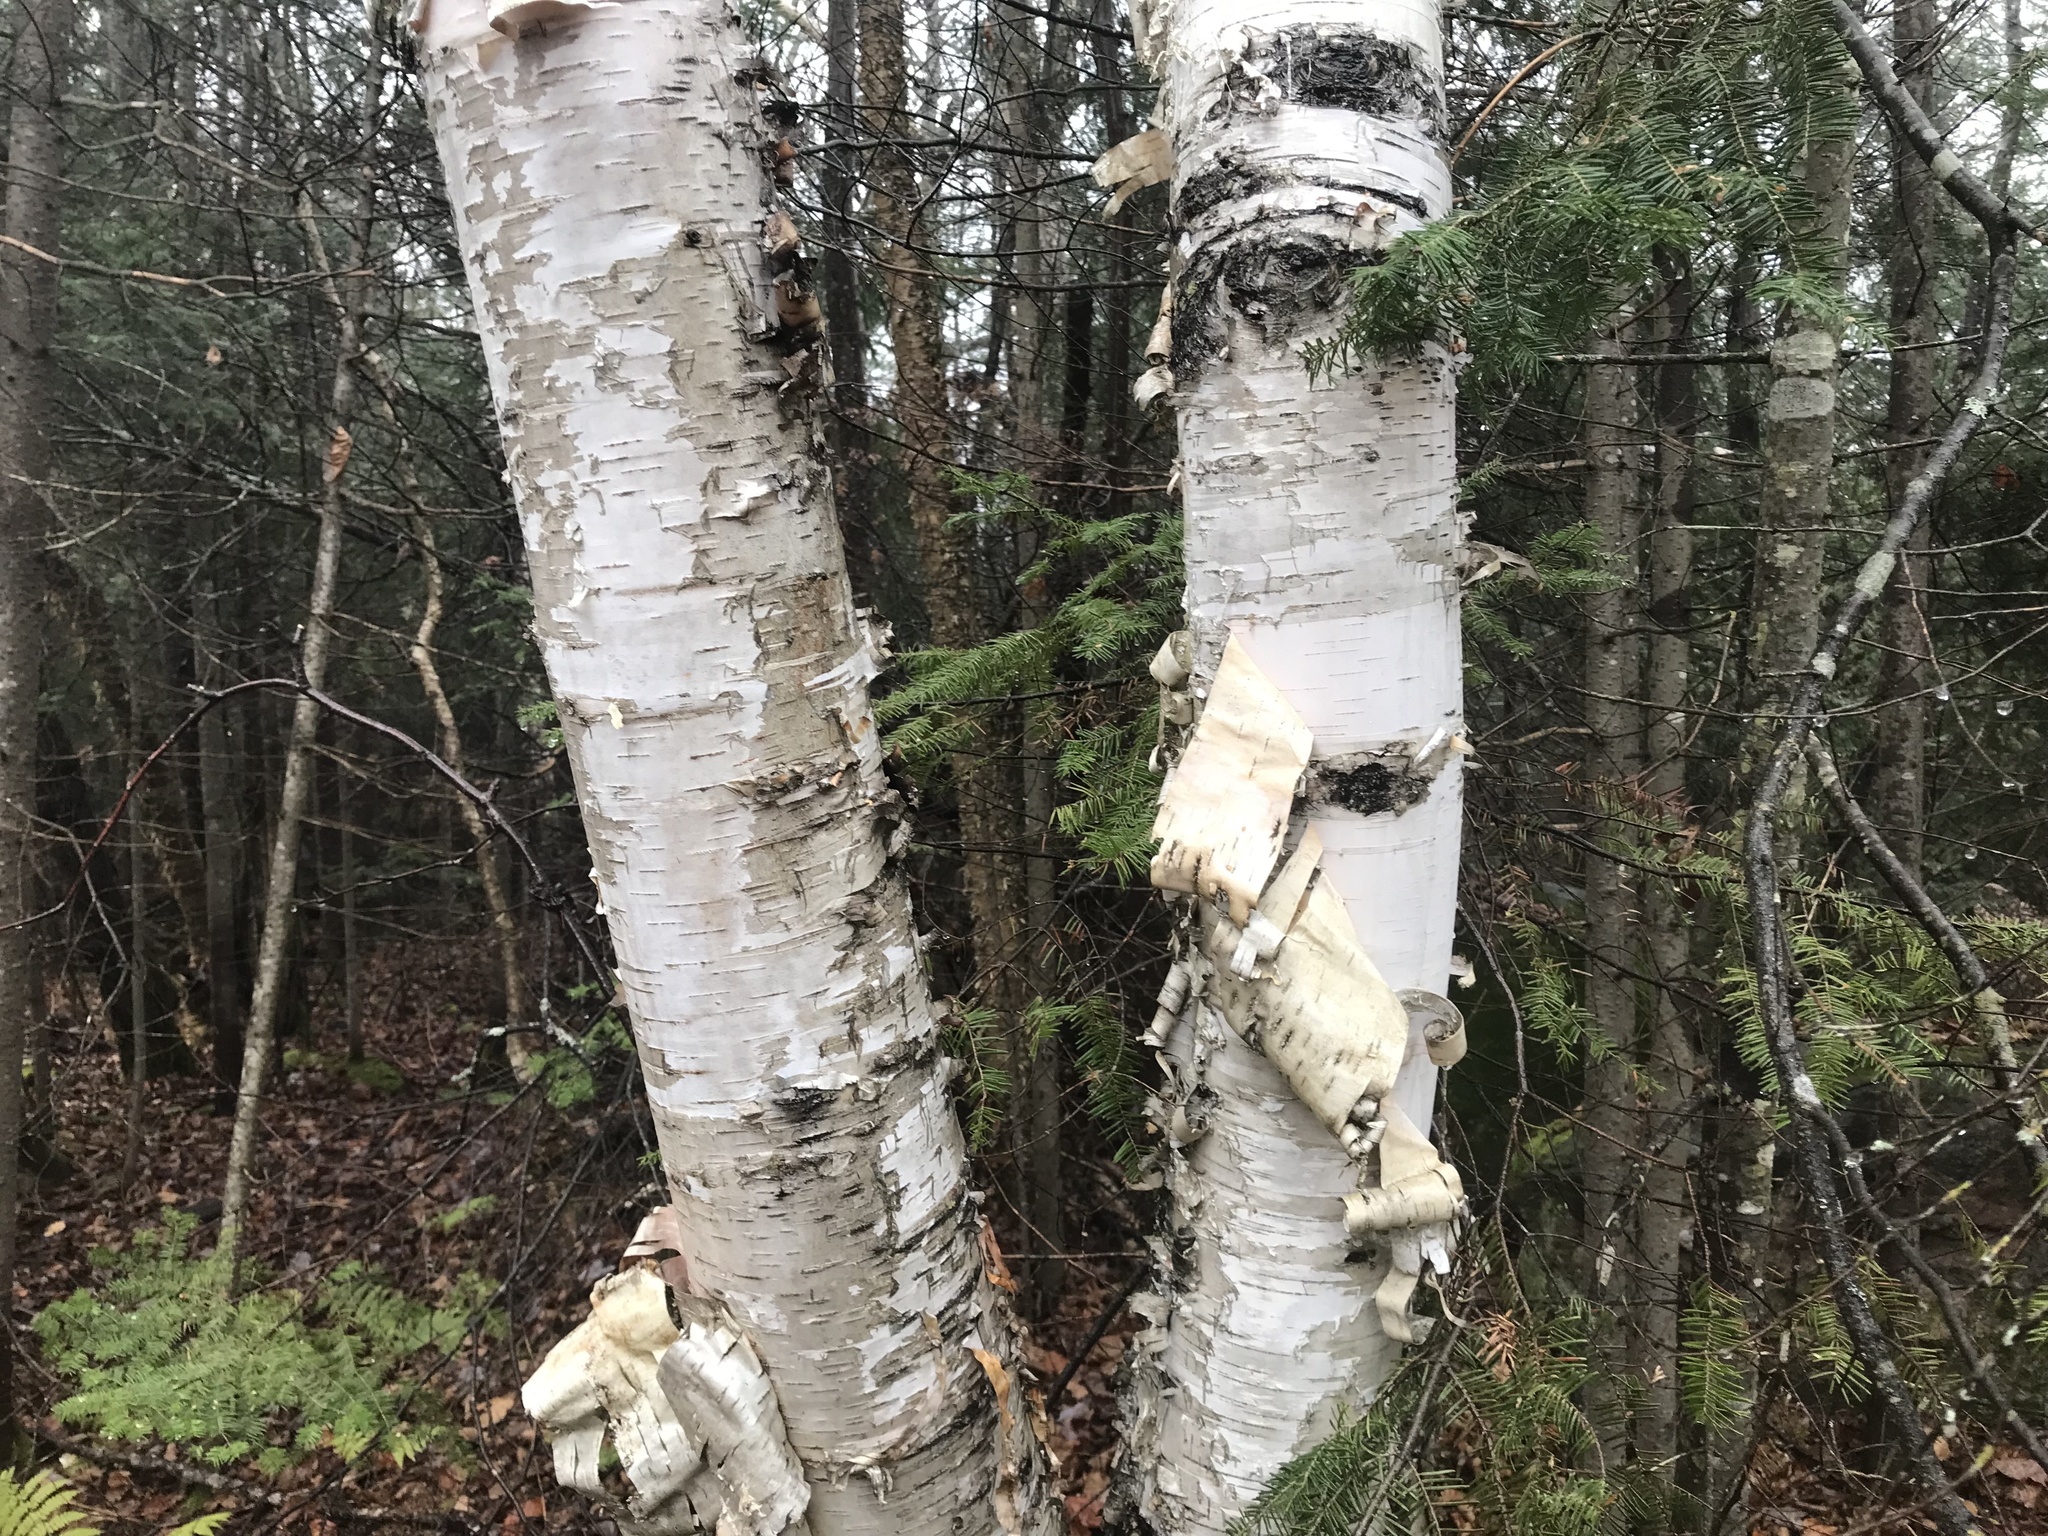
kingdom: Plantae
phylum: Tracheophyta
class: Magnoliopsida
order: Fagales
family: Betulaceae
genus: Betula
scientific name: Betula papyrifera
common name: Paper birch
